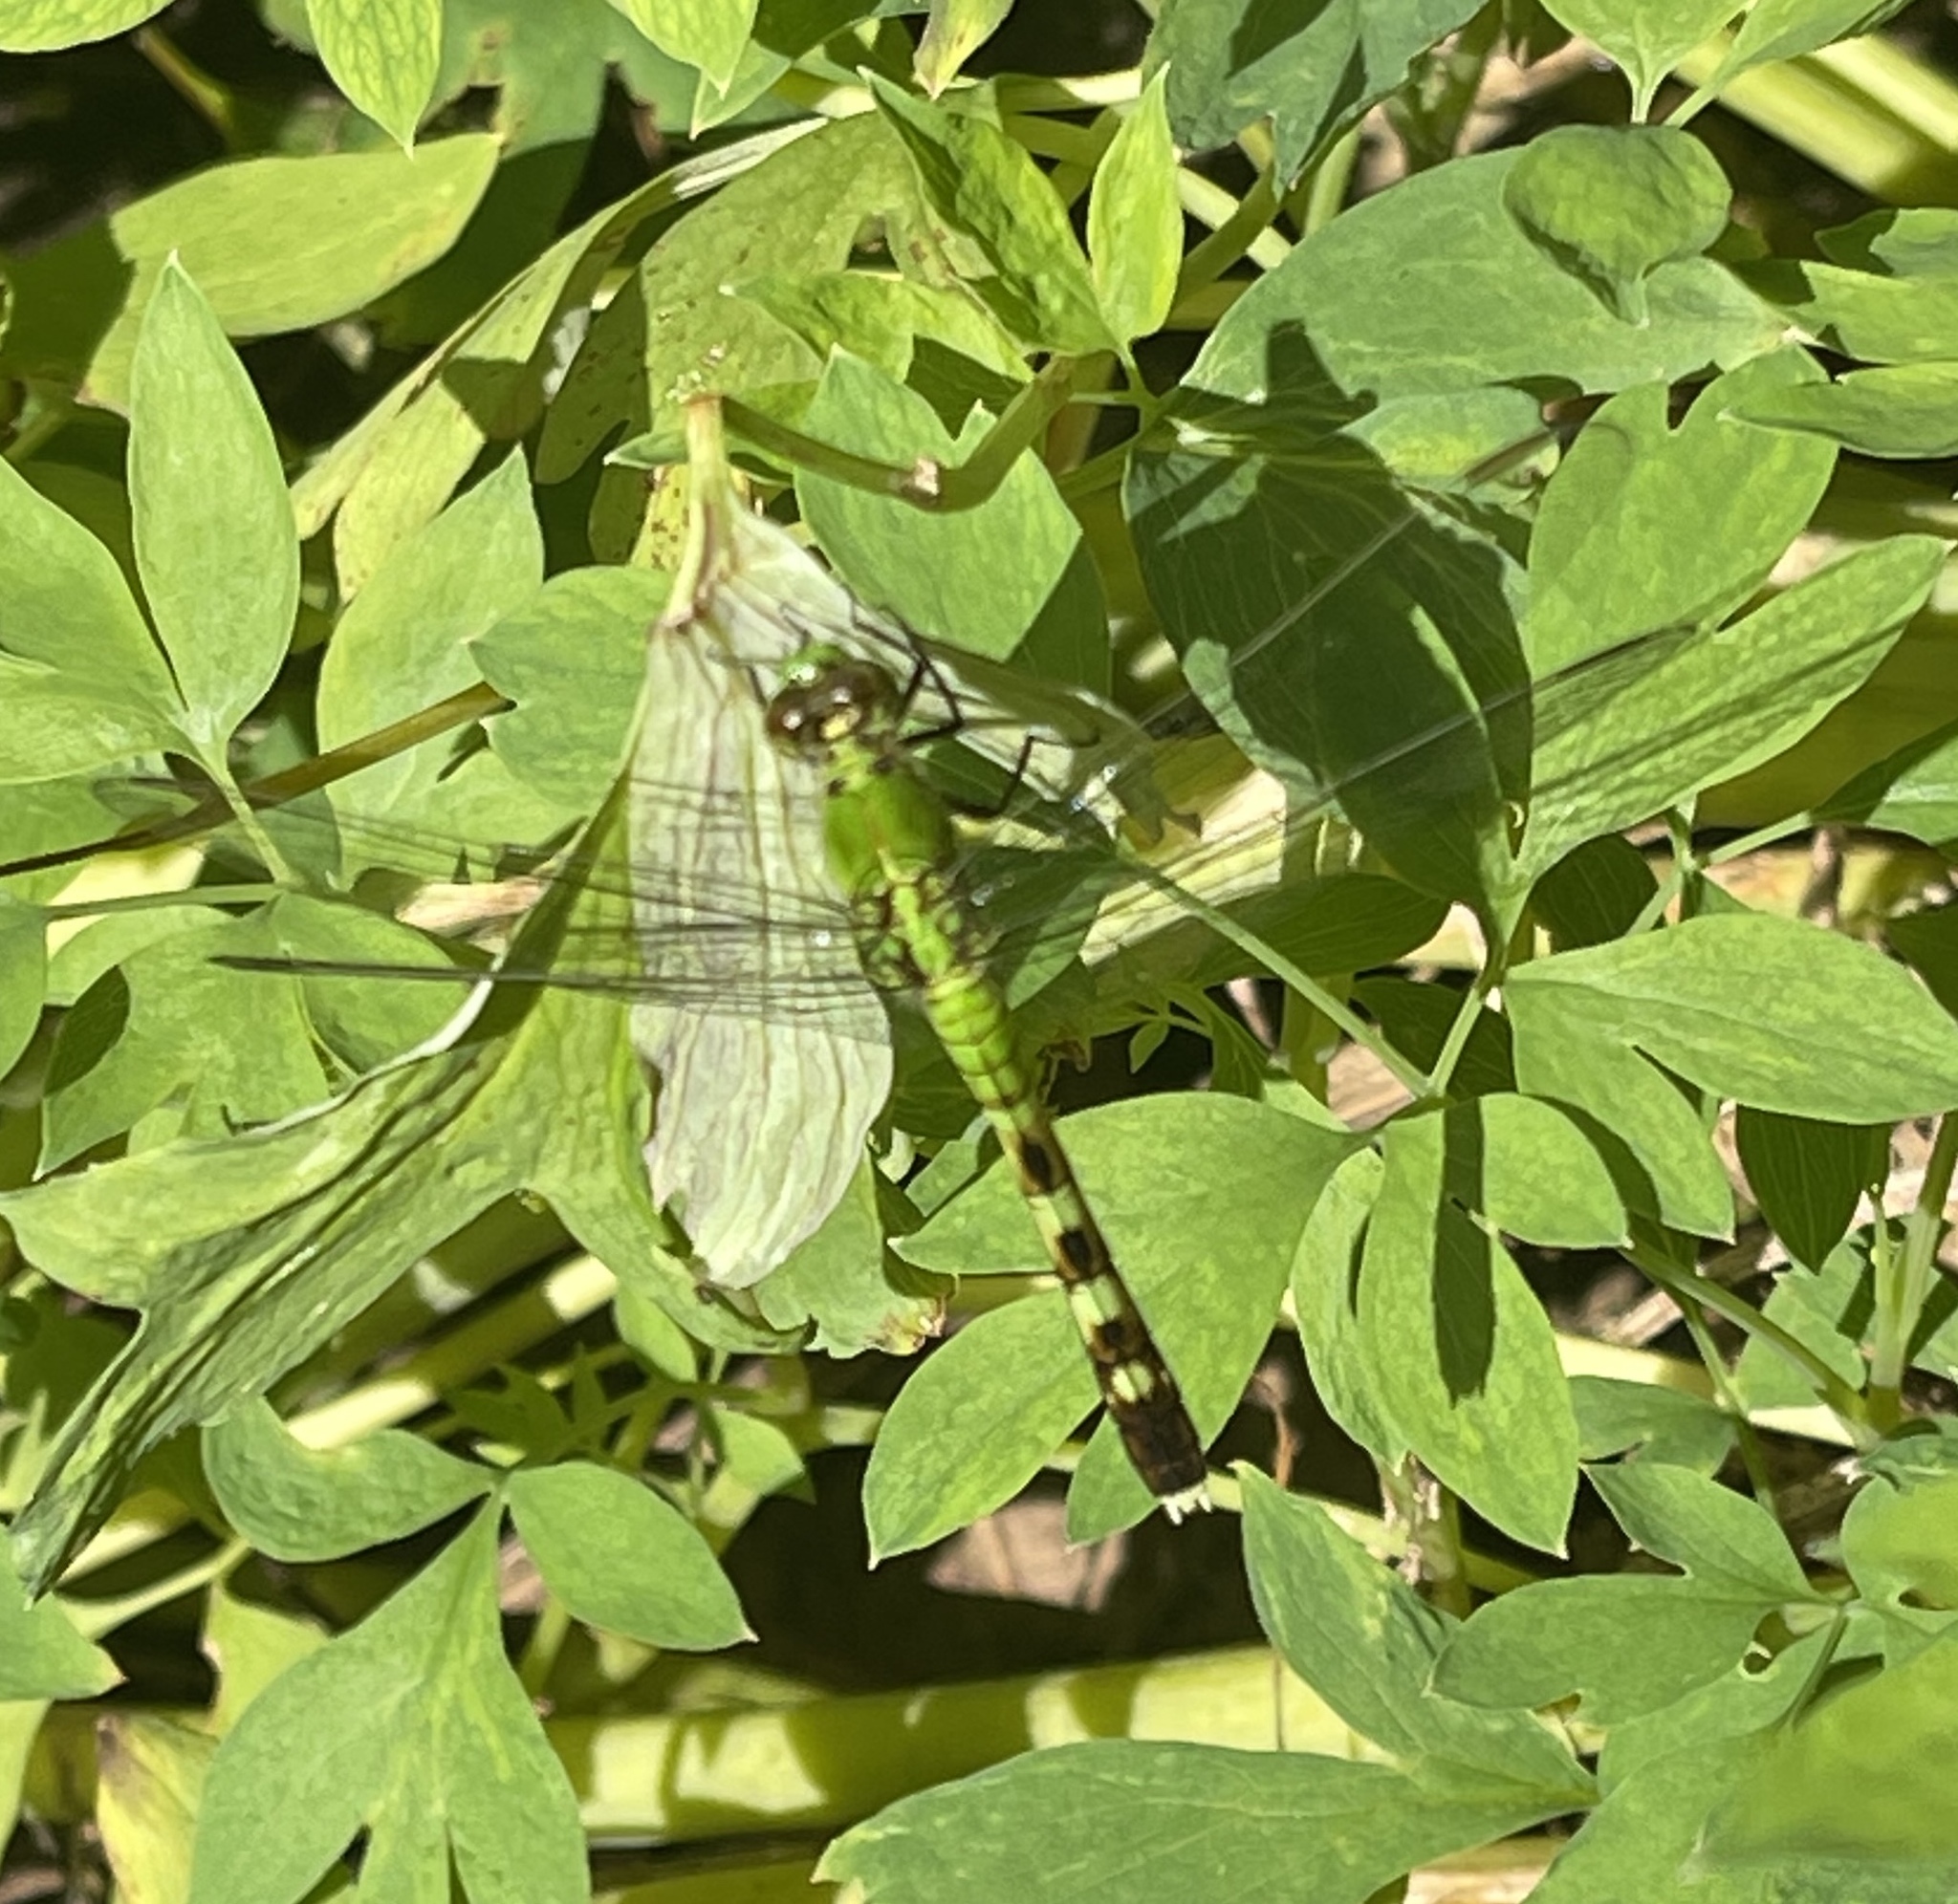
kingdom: Animalia
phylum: Arthropoda
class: Insecta
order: Odonata
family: Libellulidae
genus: Erythemis
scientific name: Erythemis simplicicollis
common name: Eastern pondhawk
